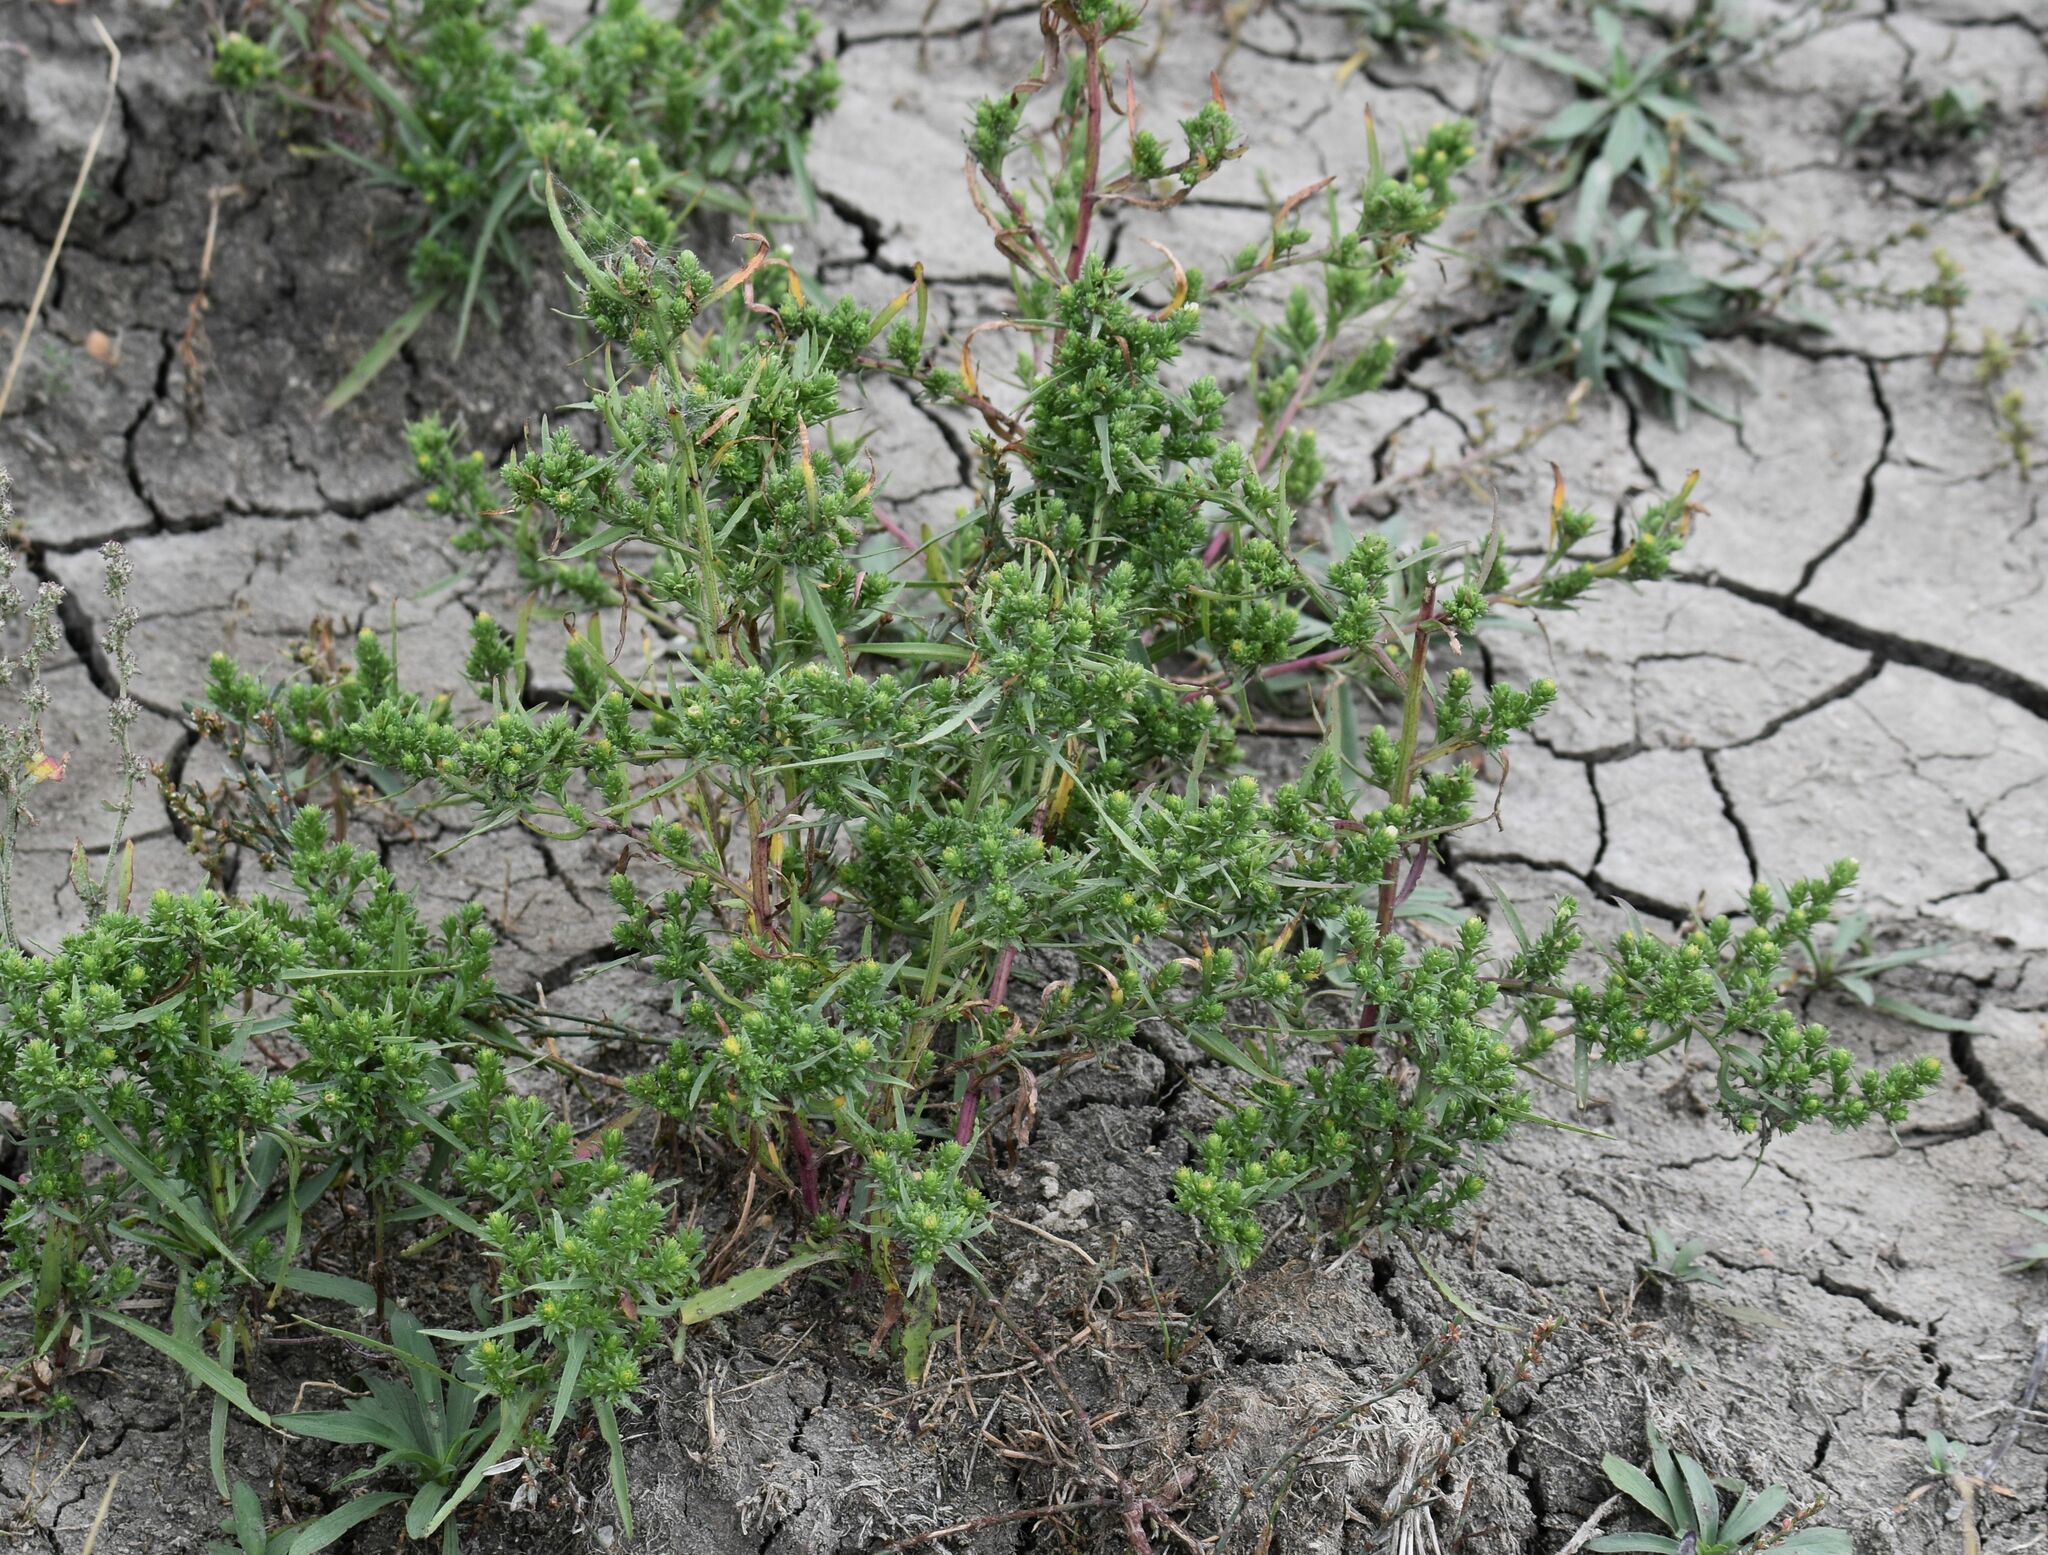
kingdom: Plantae
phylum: Tracheophyta
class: Magnoliopsida
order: Asterales
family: Asteraceae
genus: Symphyotrichum
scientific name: Symphyotrichum ciliatum
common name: Rayless annual aster
